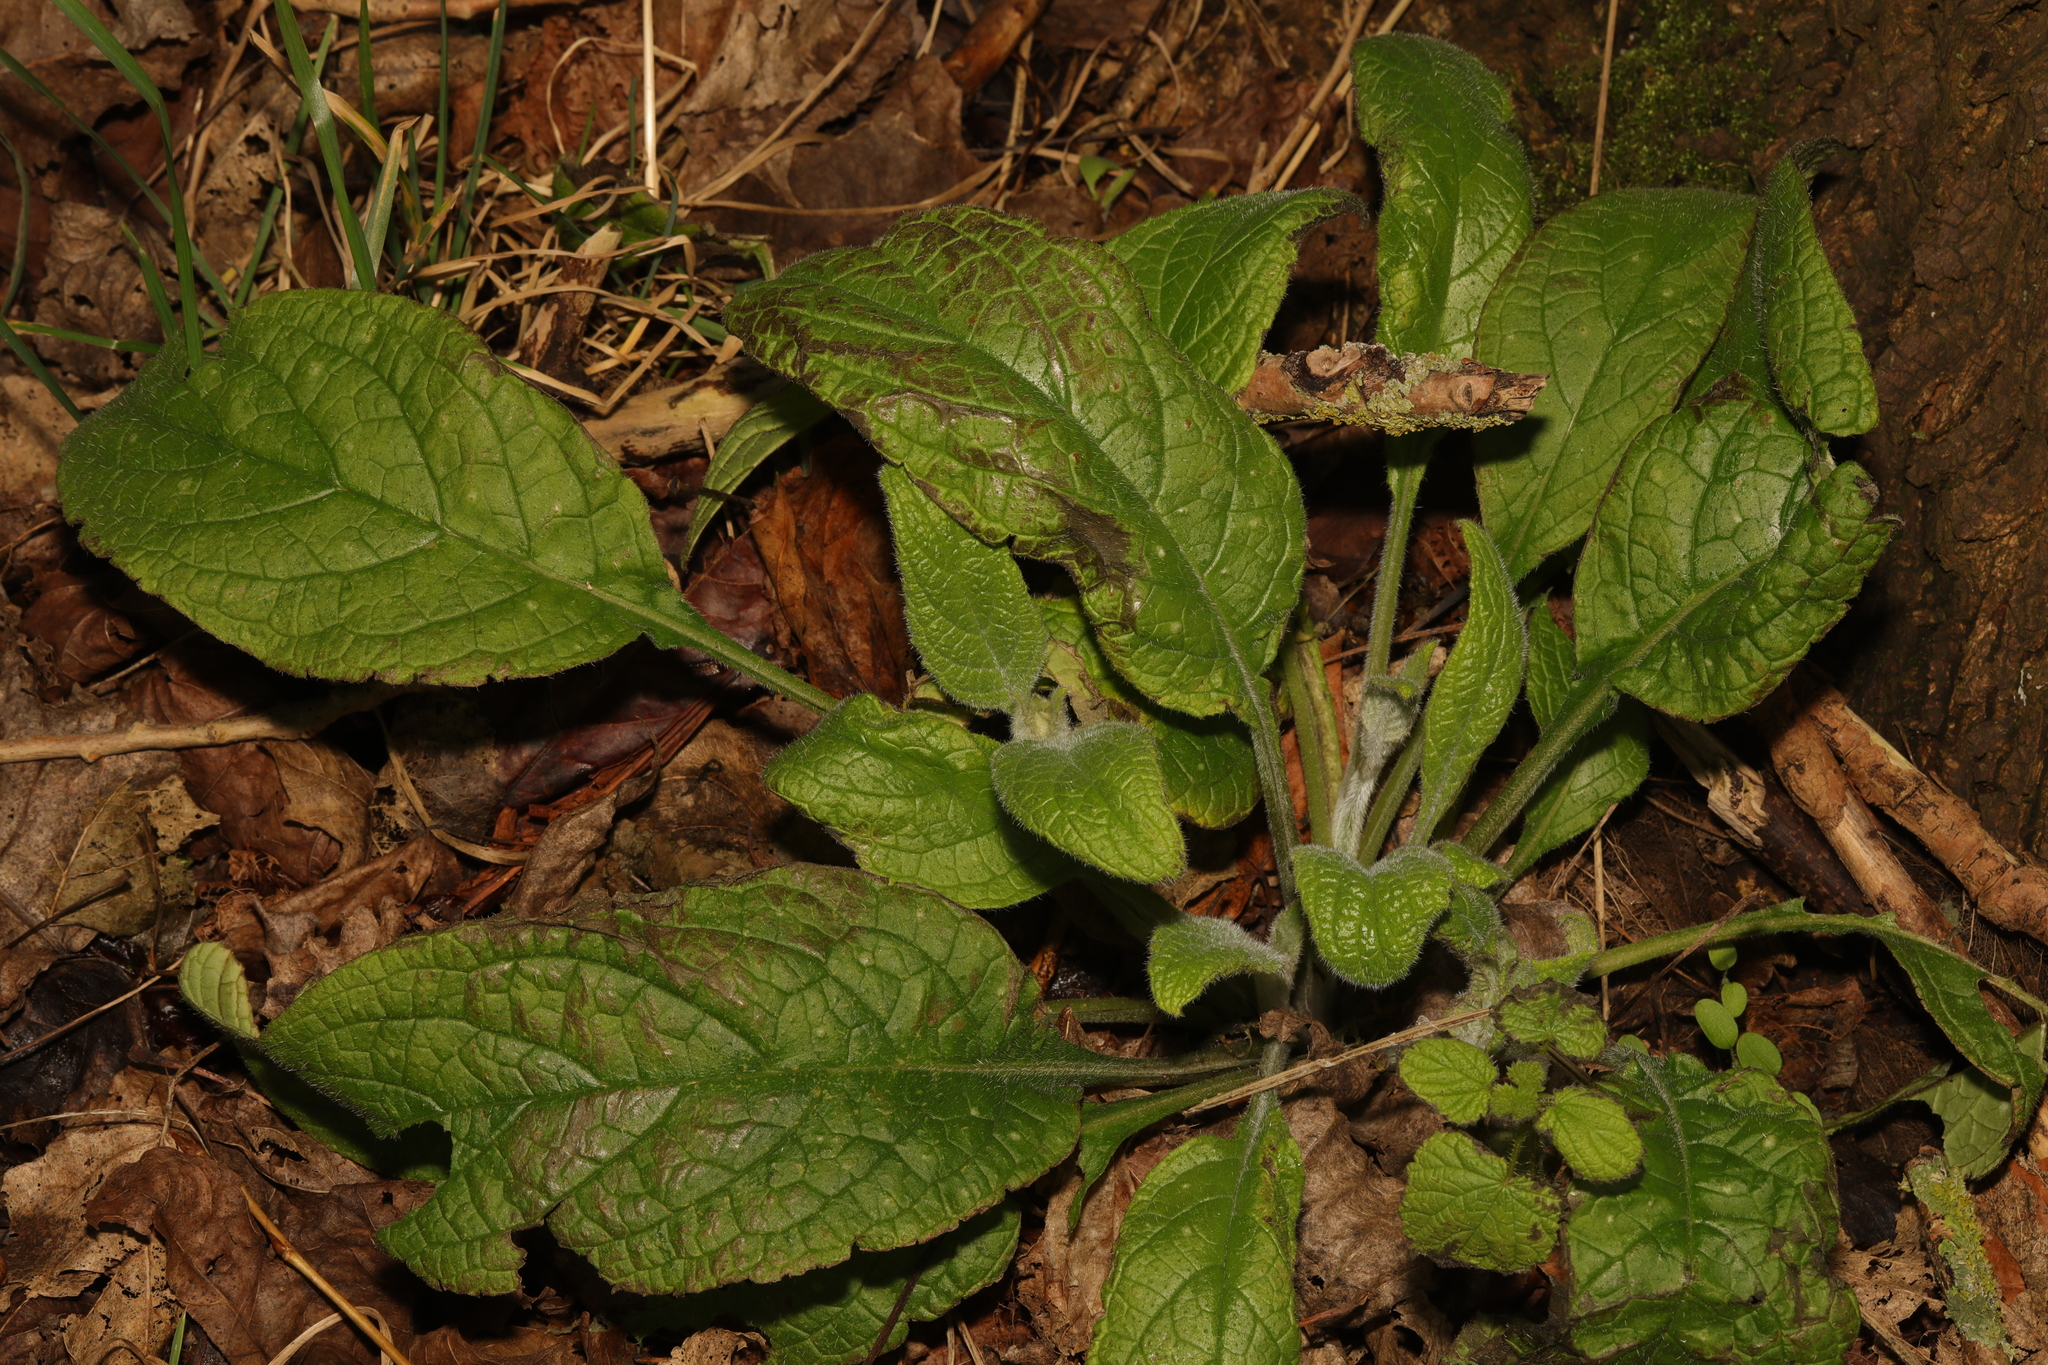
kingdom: Plantae
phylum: Tracheophyta
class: Magnoliopsida
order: Boraginales
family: Boraginaceae
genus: Pentaglottis
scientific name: Pentaglottis sempervirens
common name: Green alkanet
